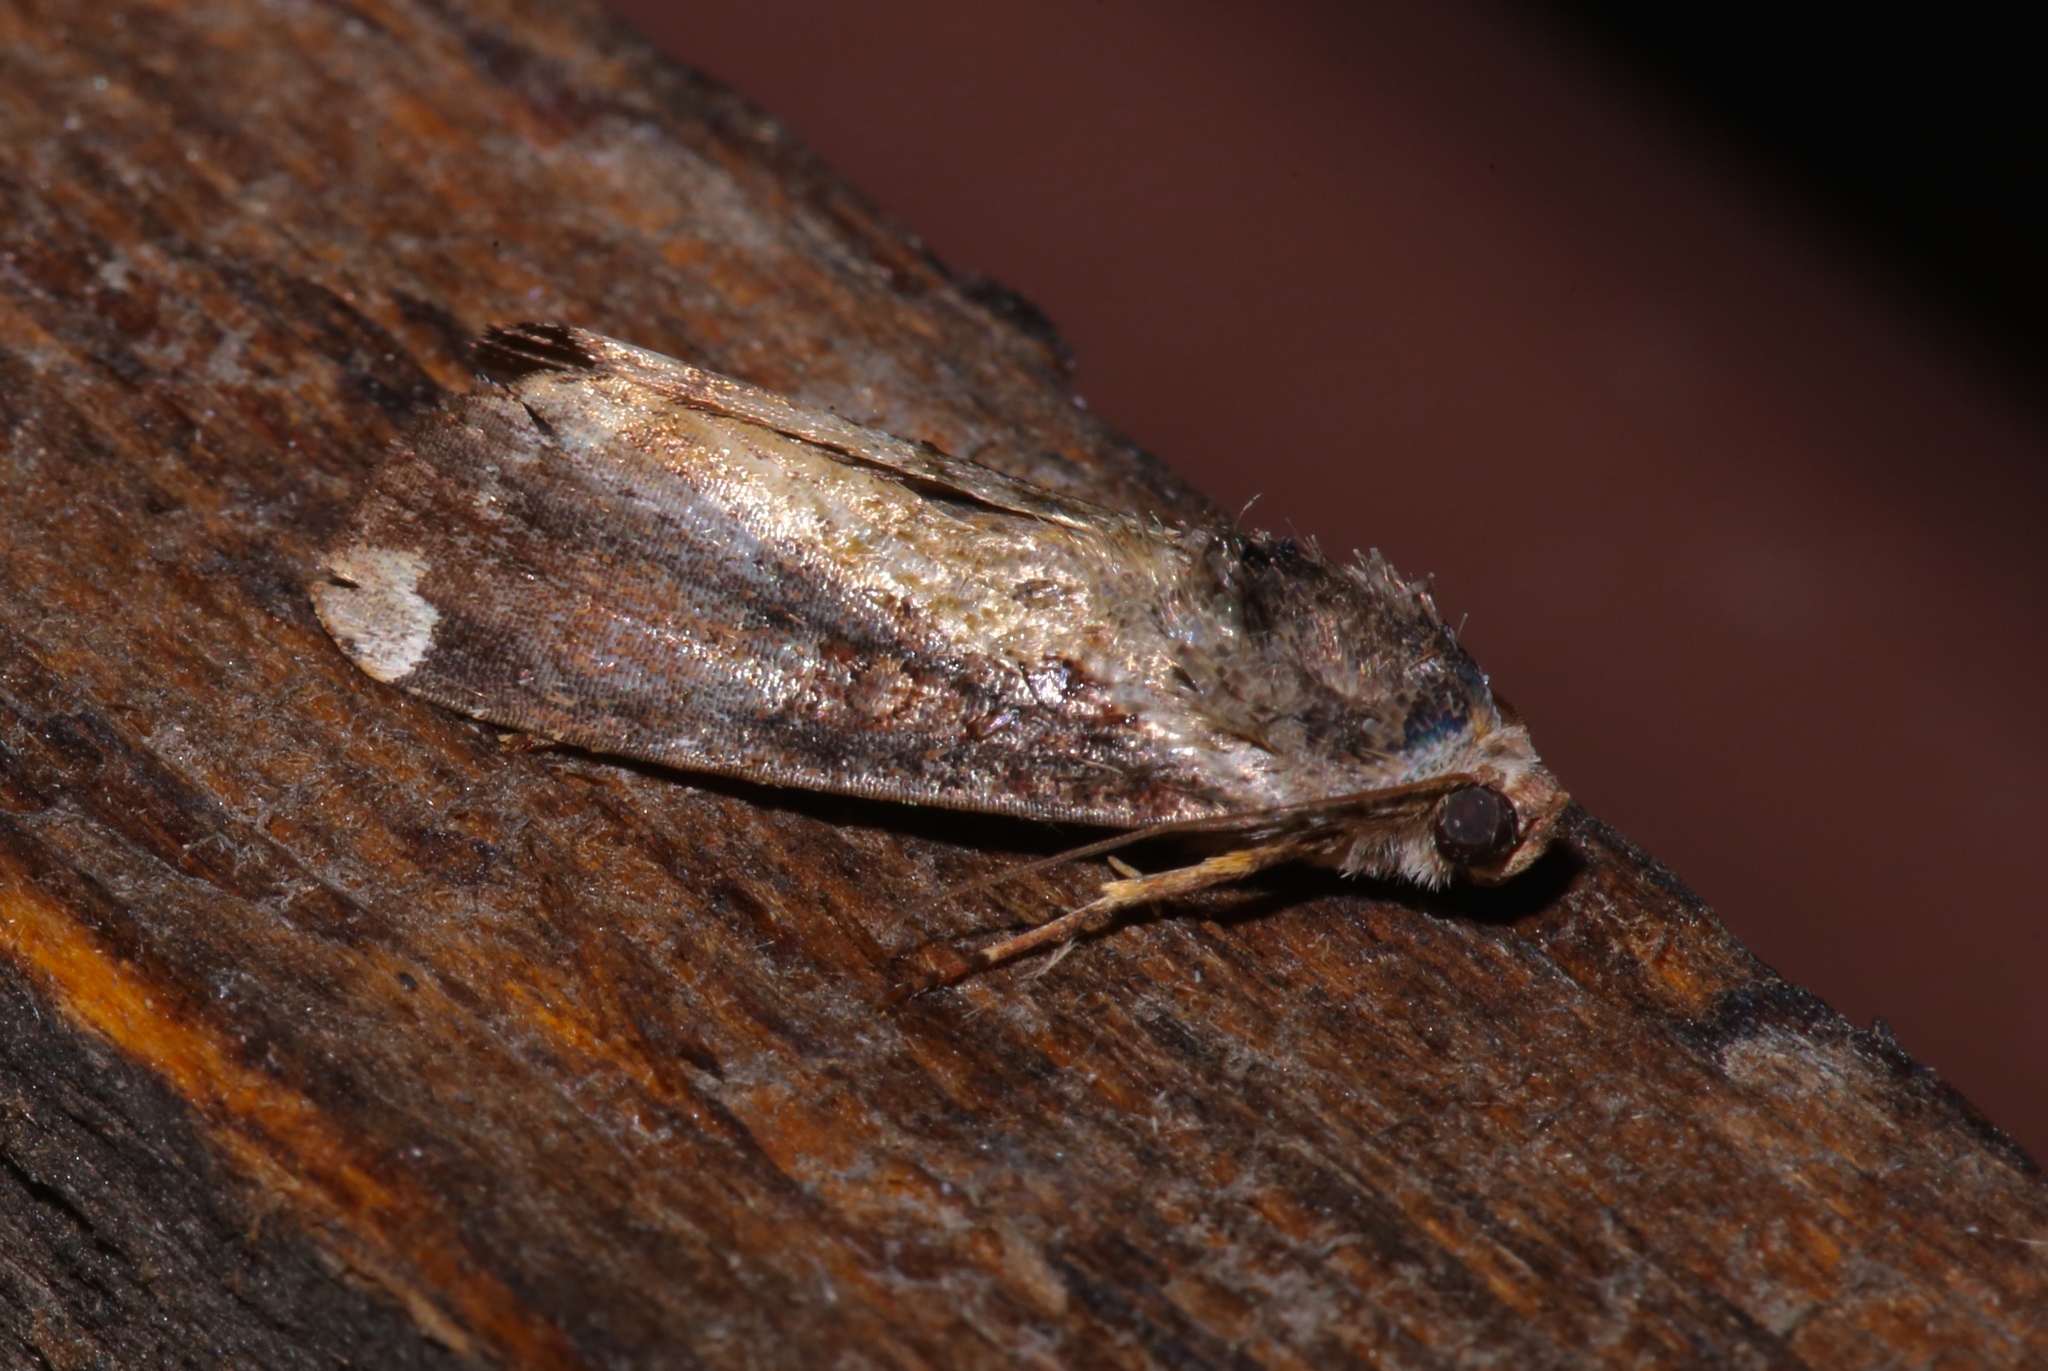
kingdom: Animalia
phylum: Arthropoda
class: Insecta
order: Lepidoptera
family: Noctuidae
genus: Magusa
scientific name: Magusa divaricata
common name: Orb narrow-winged moth
